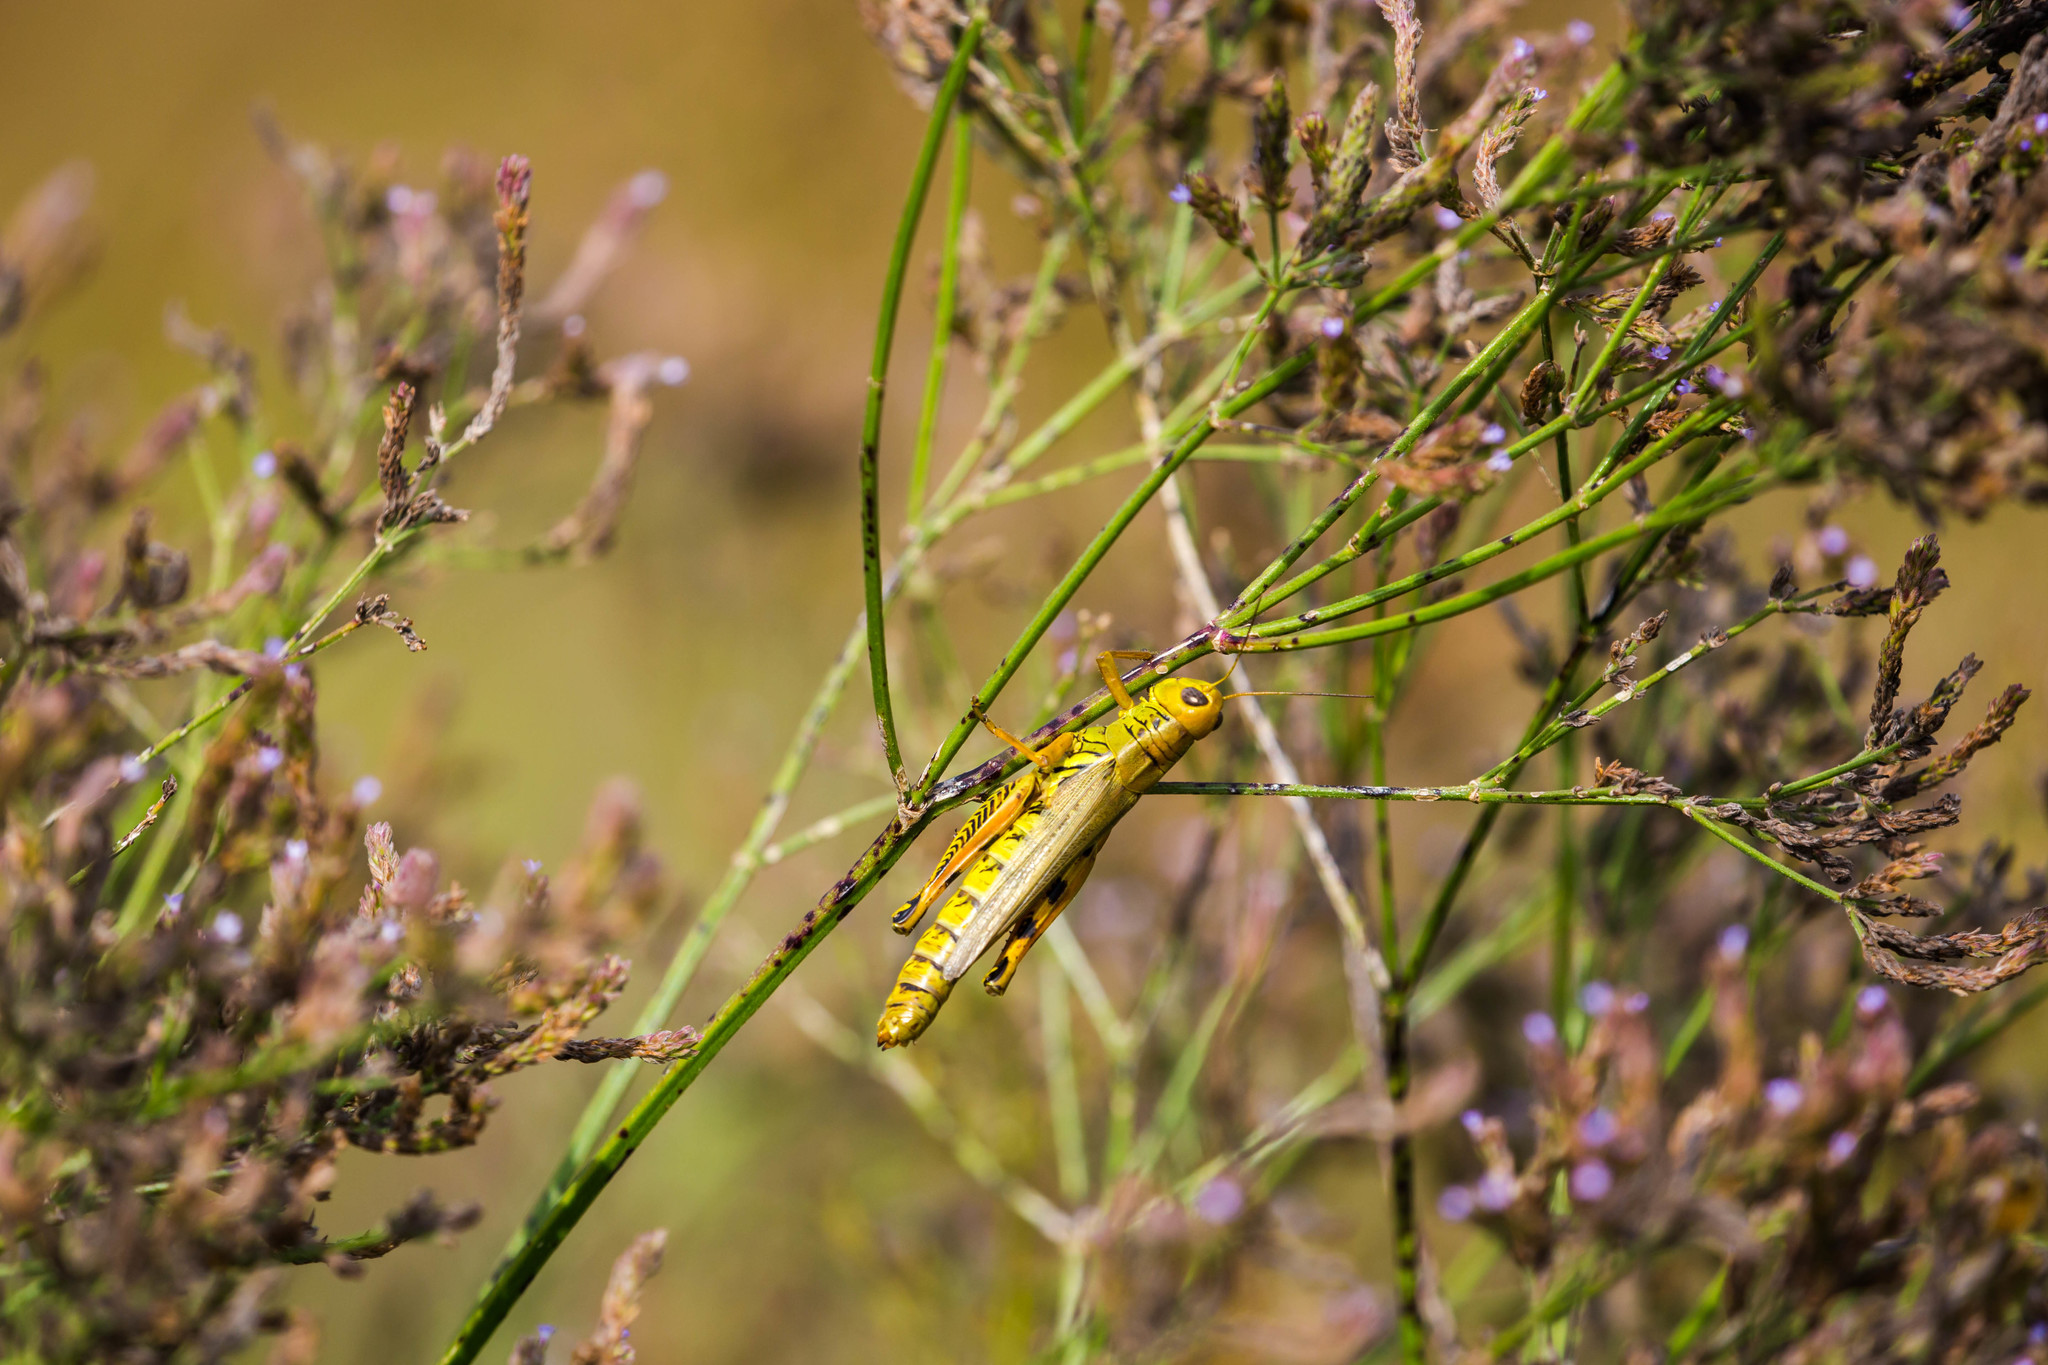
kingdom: Animalia
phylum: Arthropoda
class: Insecta
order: Orthoptera
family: Acrididae
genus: Melanoplus
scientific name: Melanoplus differentialis
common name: Differential grasshopper
